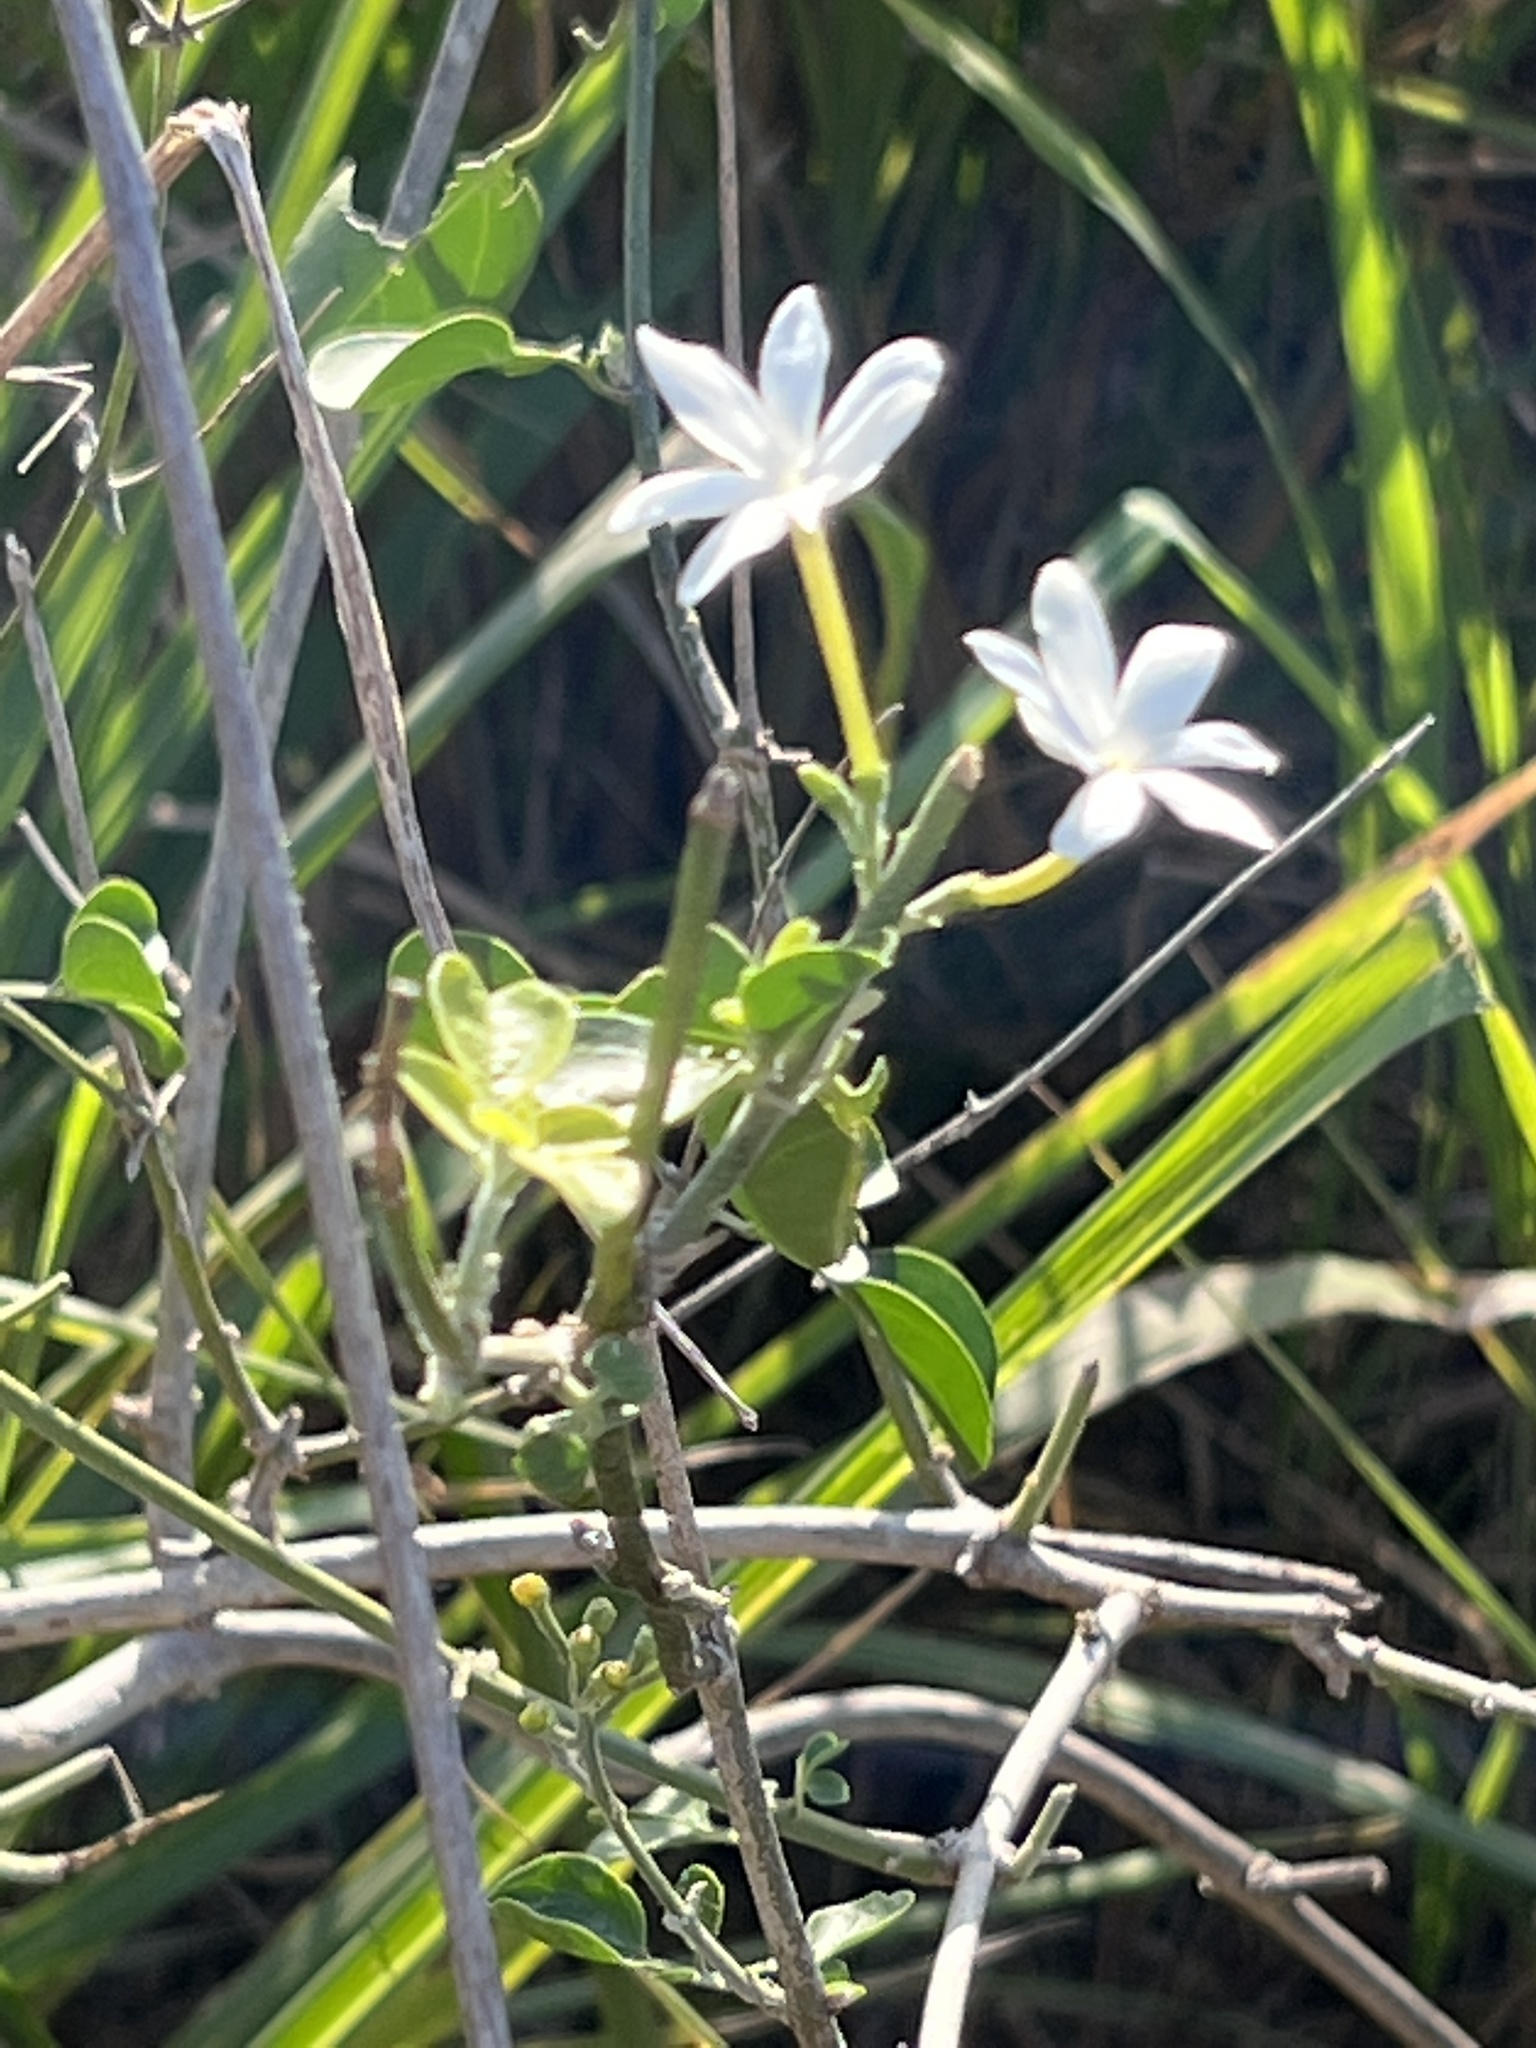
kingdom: Plantae
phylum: Tracheophyta
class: Magnoliopsida
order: Lamiales
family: Oleaceae
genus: Jasminum
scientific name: Jasminum fluminense
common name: Brazilian jasmine
